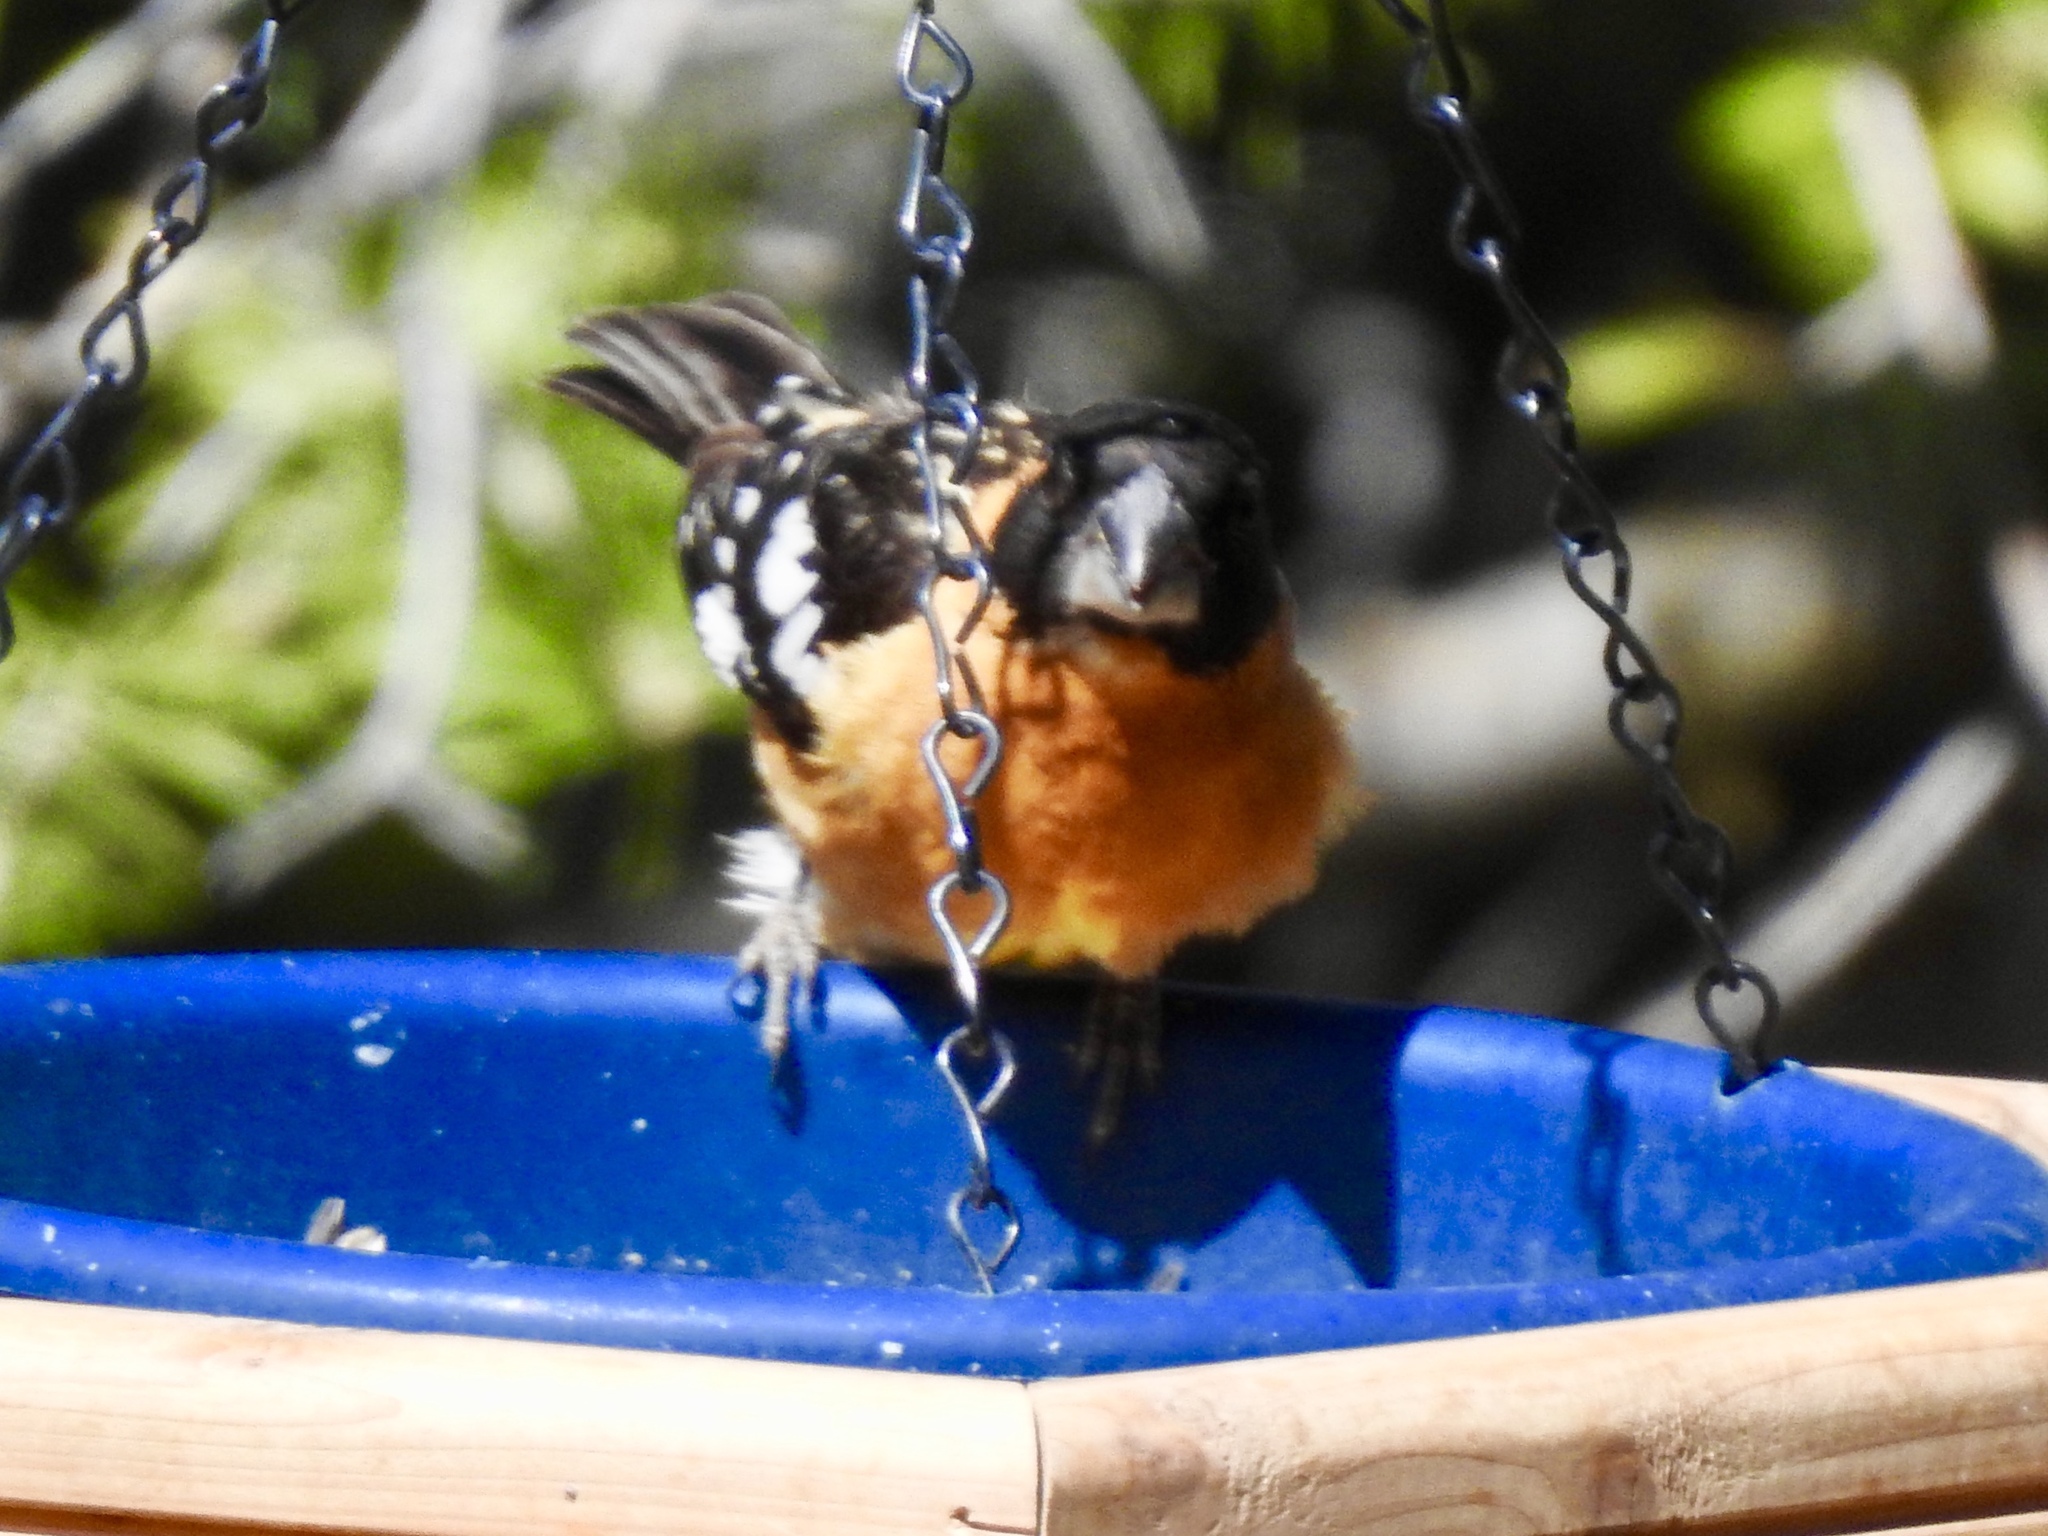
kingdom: Animalia
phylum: Chordata
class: Aves
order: Passeriformes
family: Cardinalidae
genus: Pheucticus
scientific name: Pheucticus melanocephalus
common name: Black-headed grosbeak
